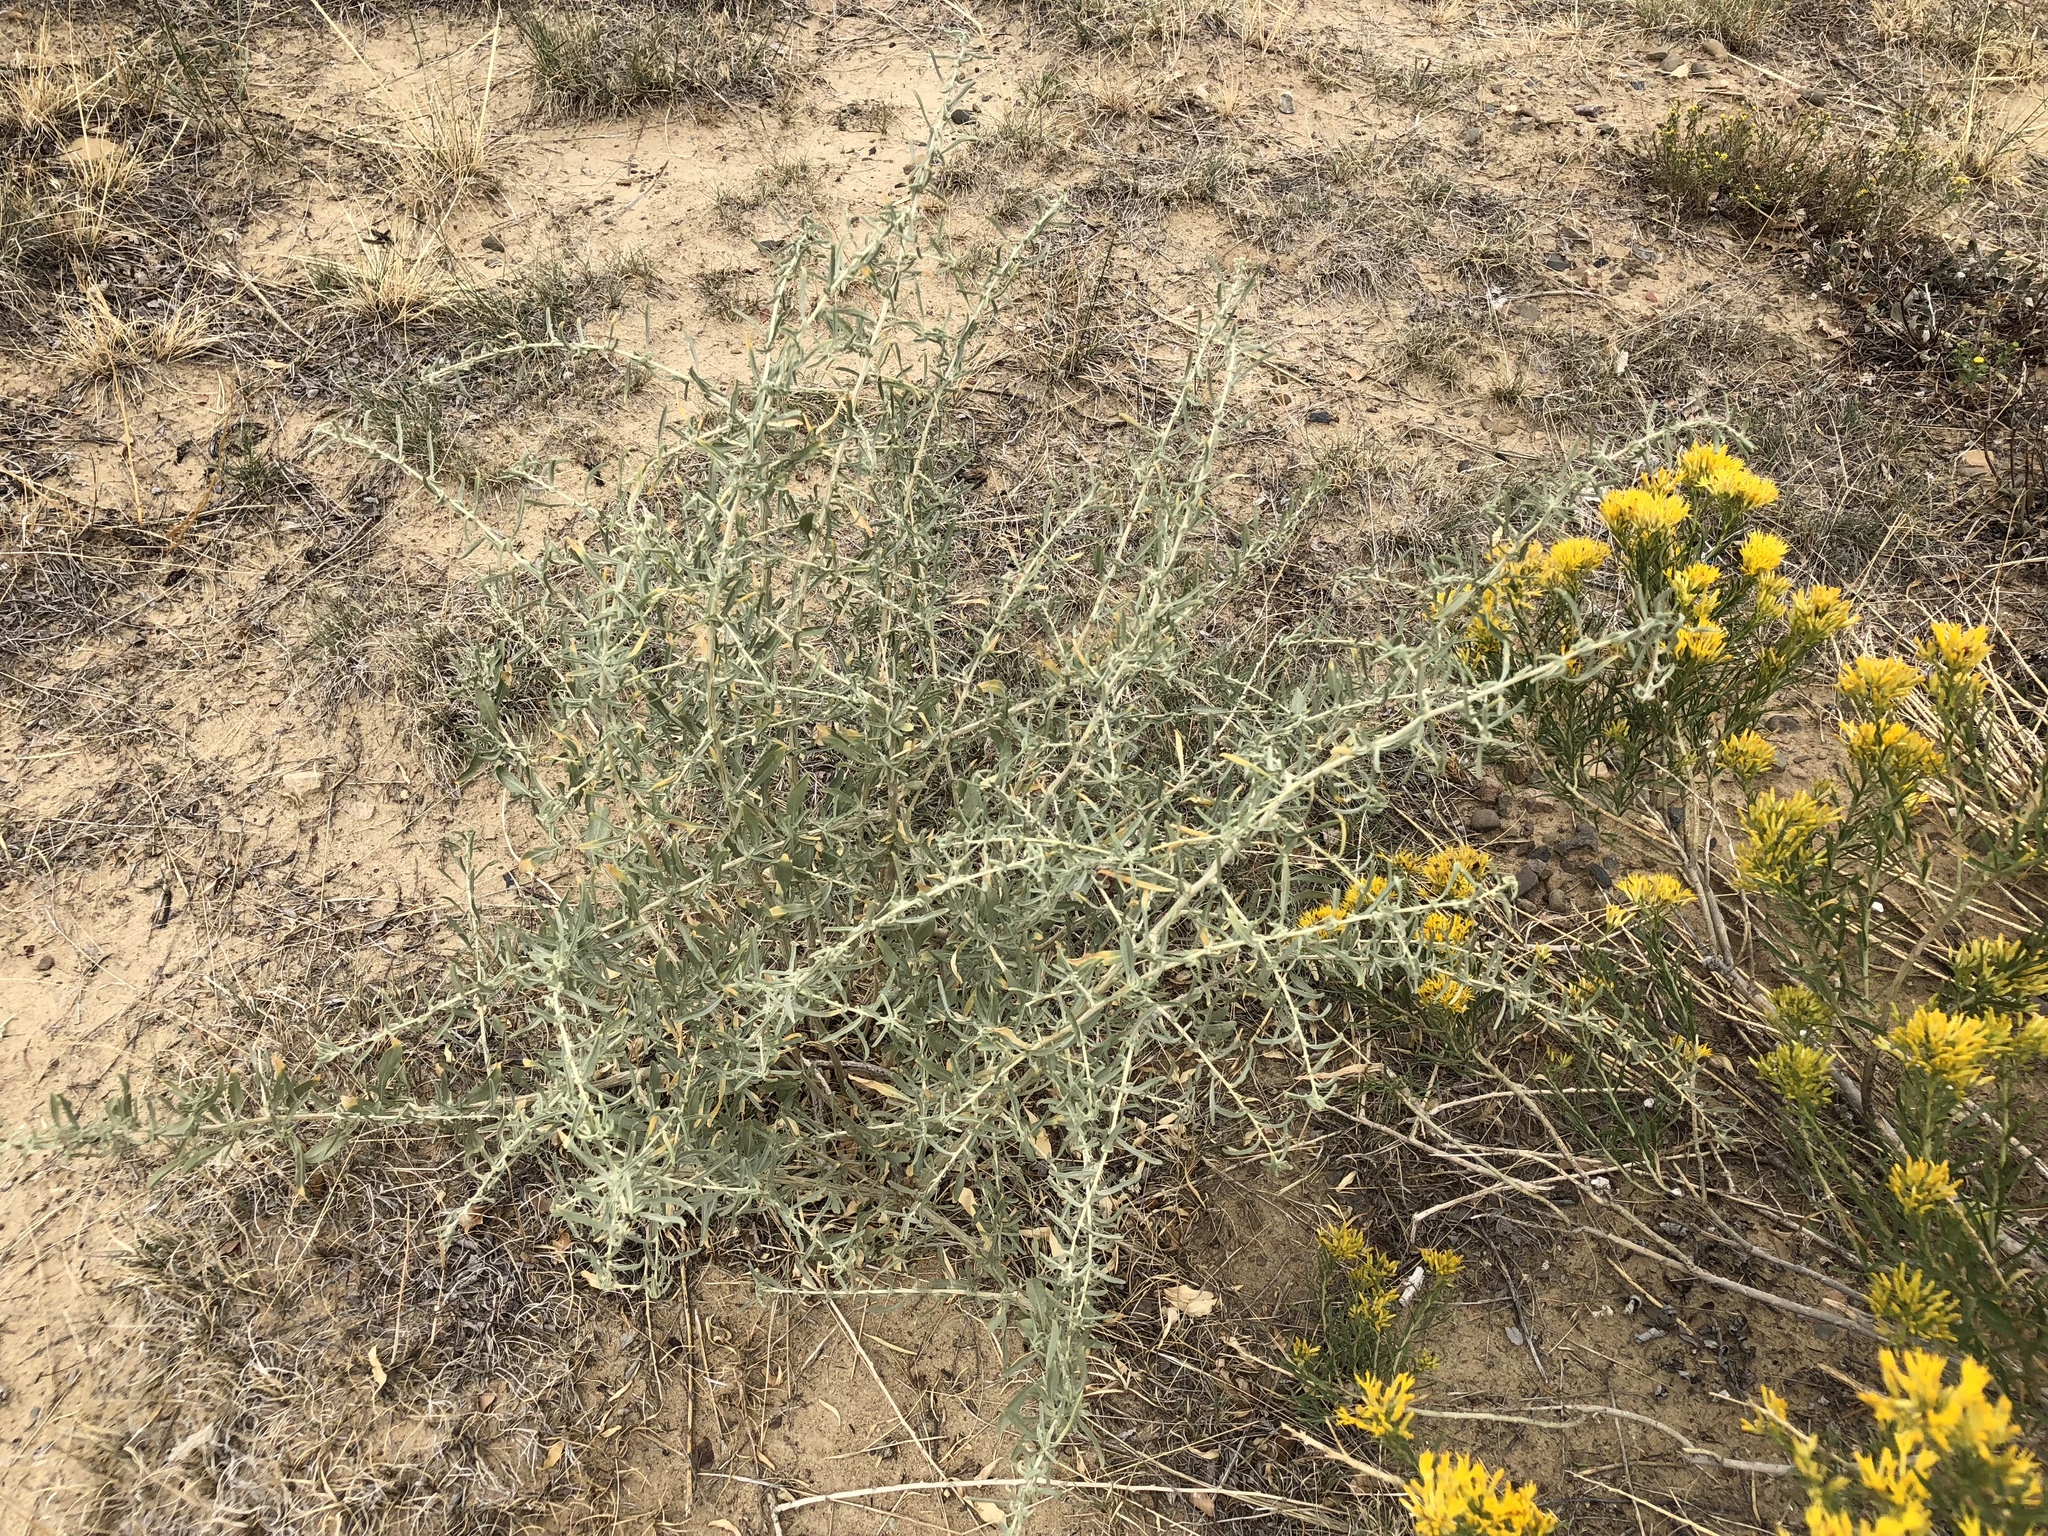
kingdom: Plantae
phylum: Tracheophyta
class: Magnoliopsida
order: Caryophyllales
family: Amaranthaceae
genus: Atriplex
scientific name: Atriplex canescens
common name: Four-wing saltbush
